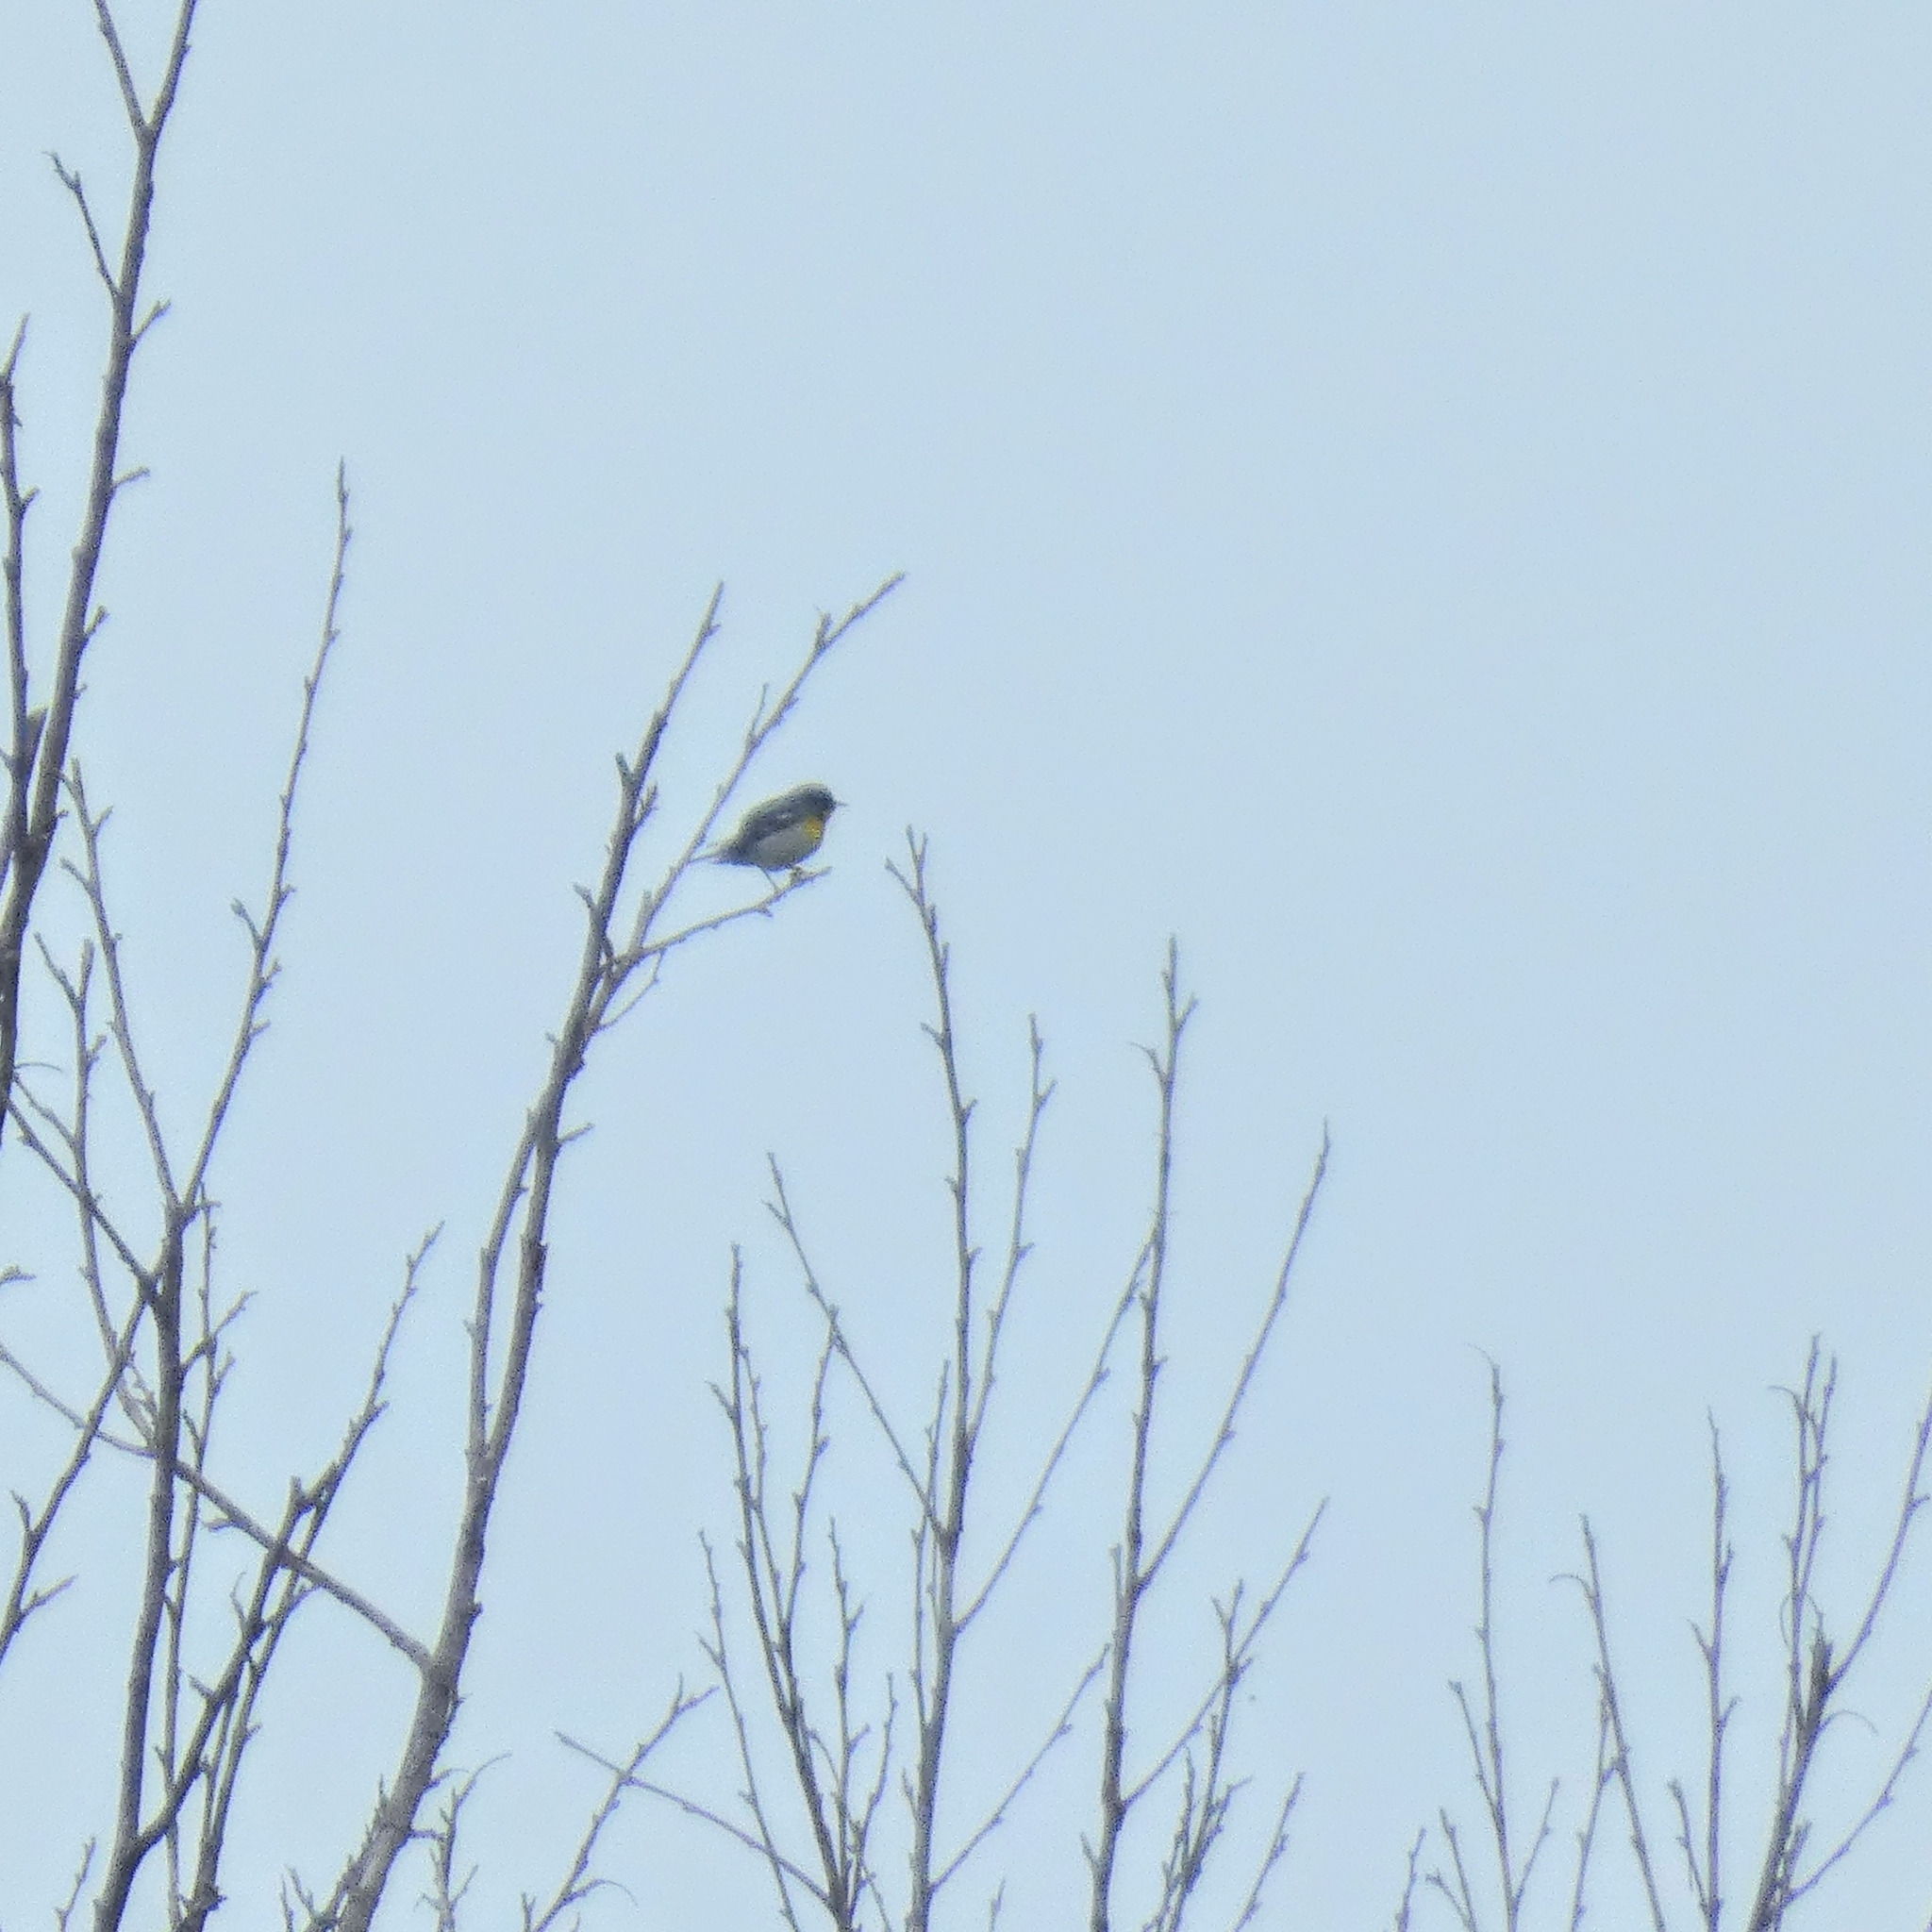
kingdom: Animalia
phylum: Chordata
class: Aves
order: Passeriformes
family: Parulidae
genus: Setophaga
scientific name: Setophaga americana
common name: Northern parula
